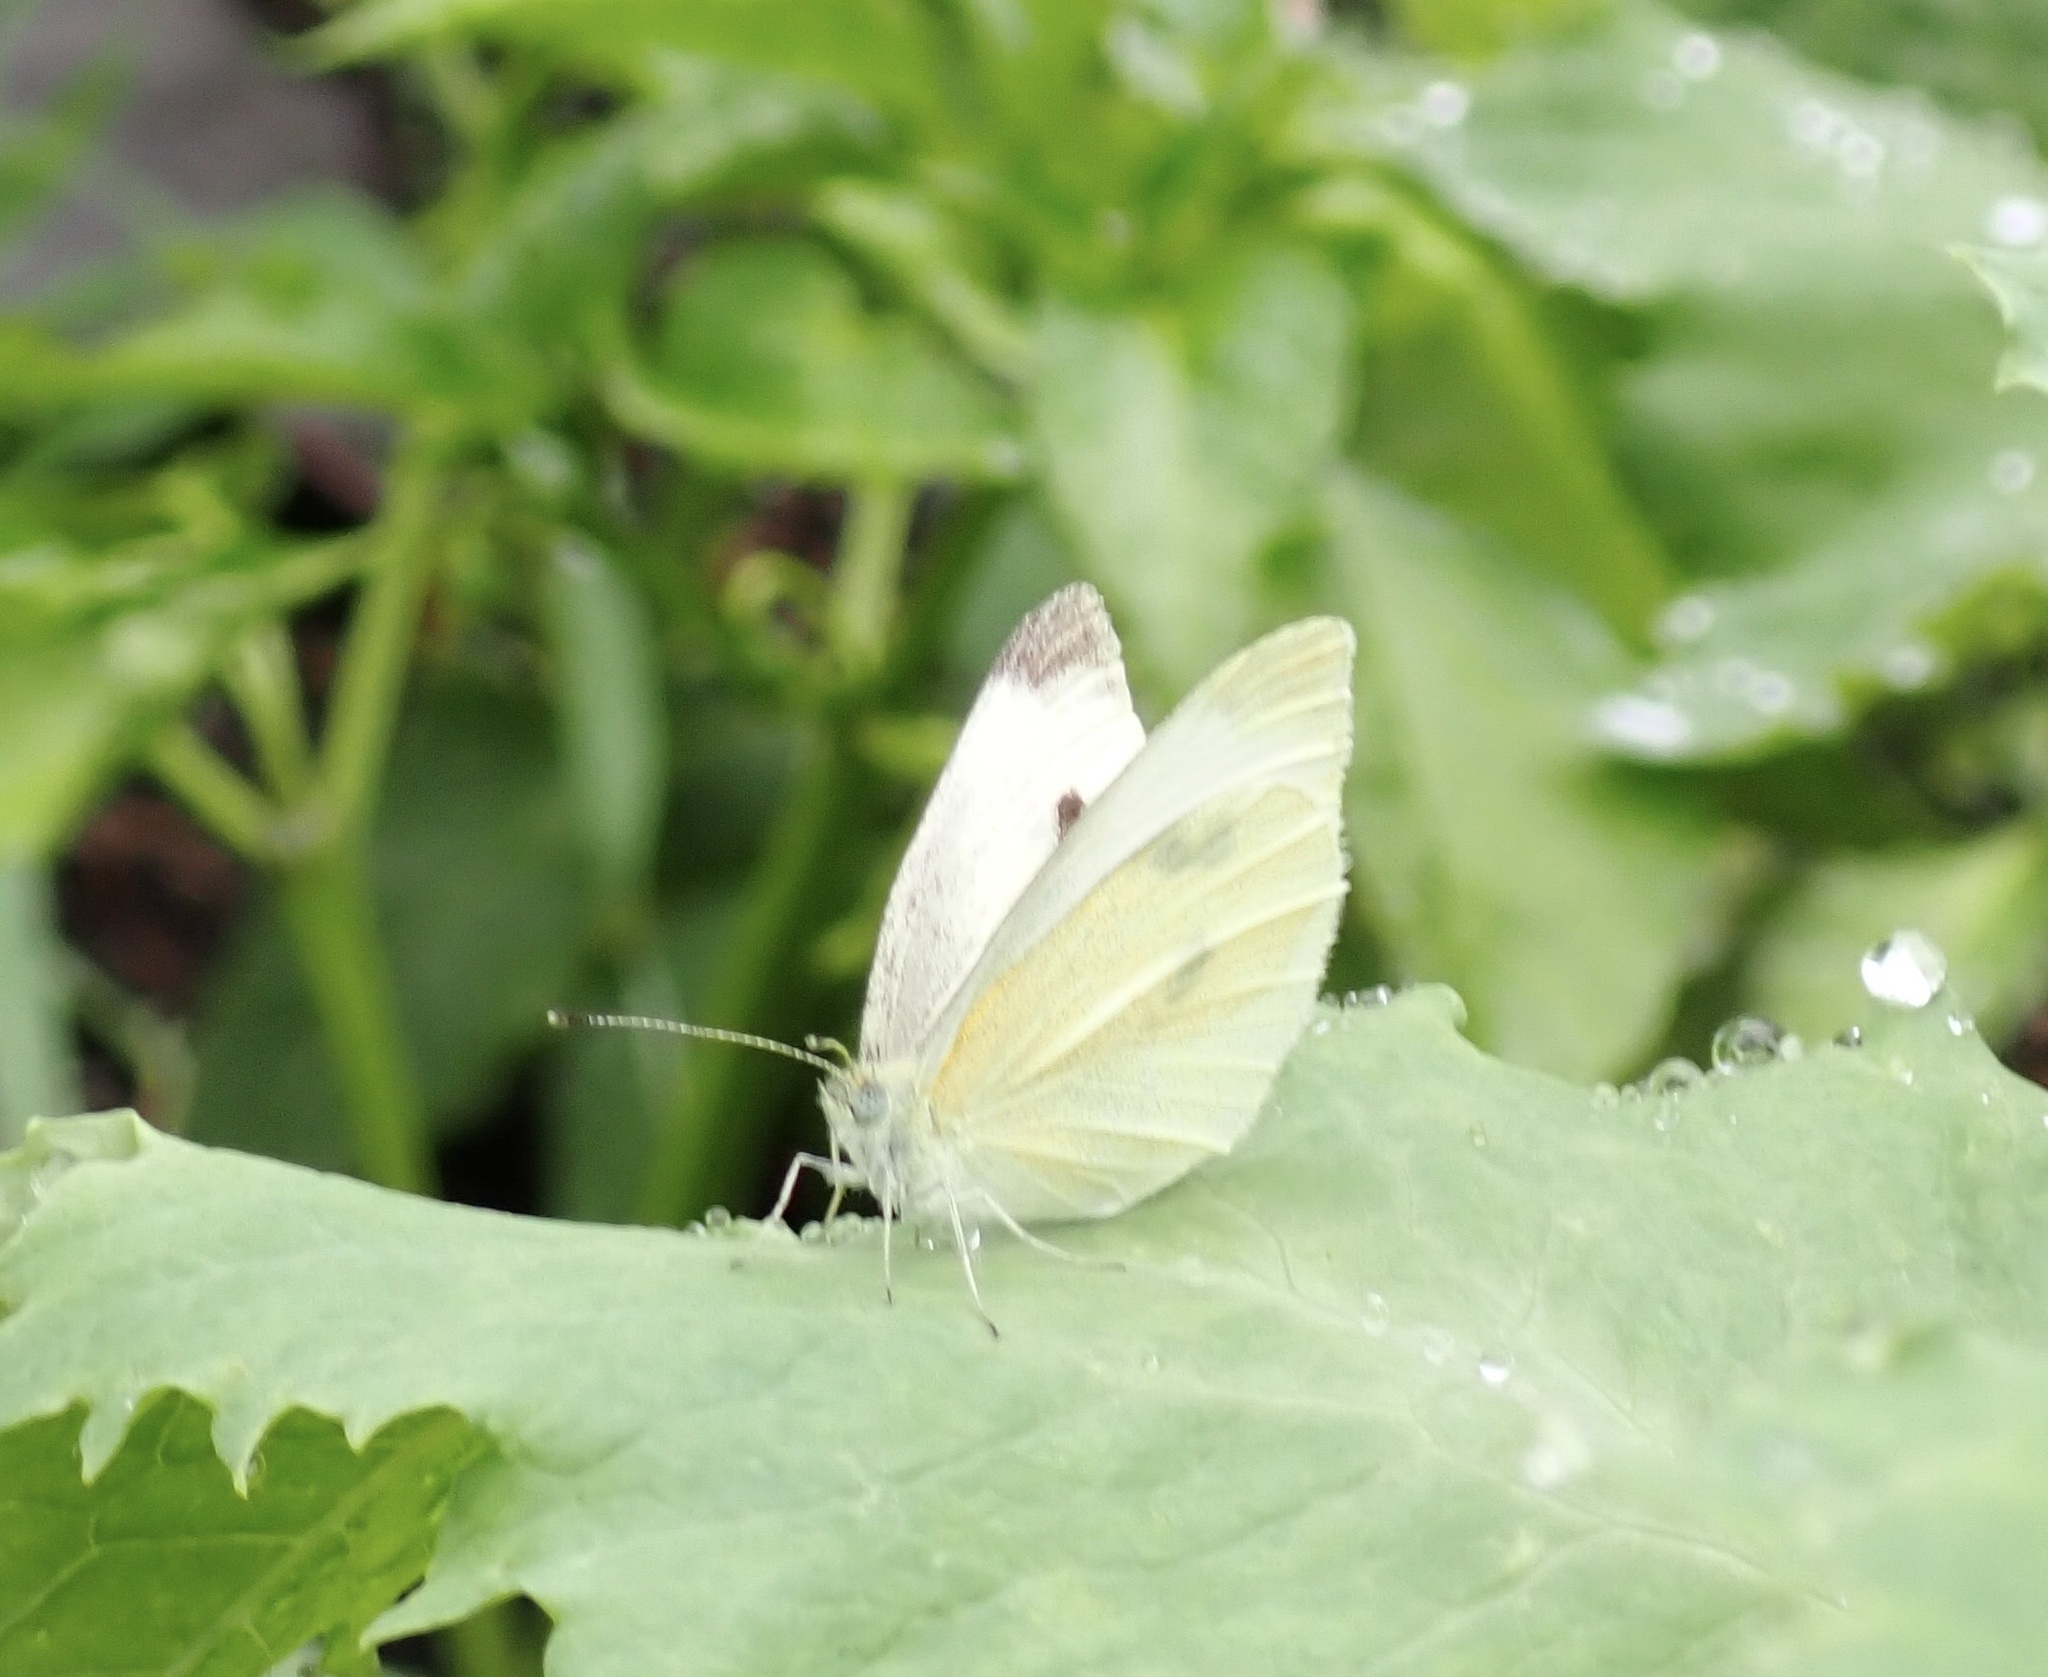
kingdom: Animalia
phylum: Arthropoda
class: Insecta
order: Lepidoptera
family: Pieridae
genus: Pieris
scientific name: Pieris rapae
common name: Small white
